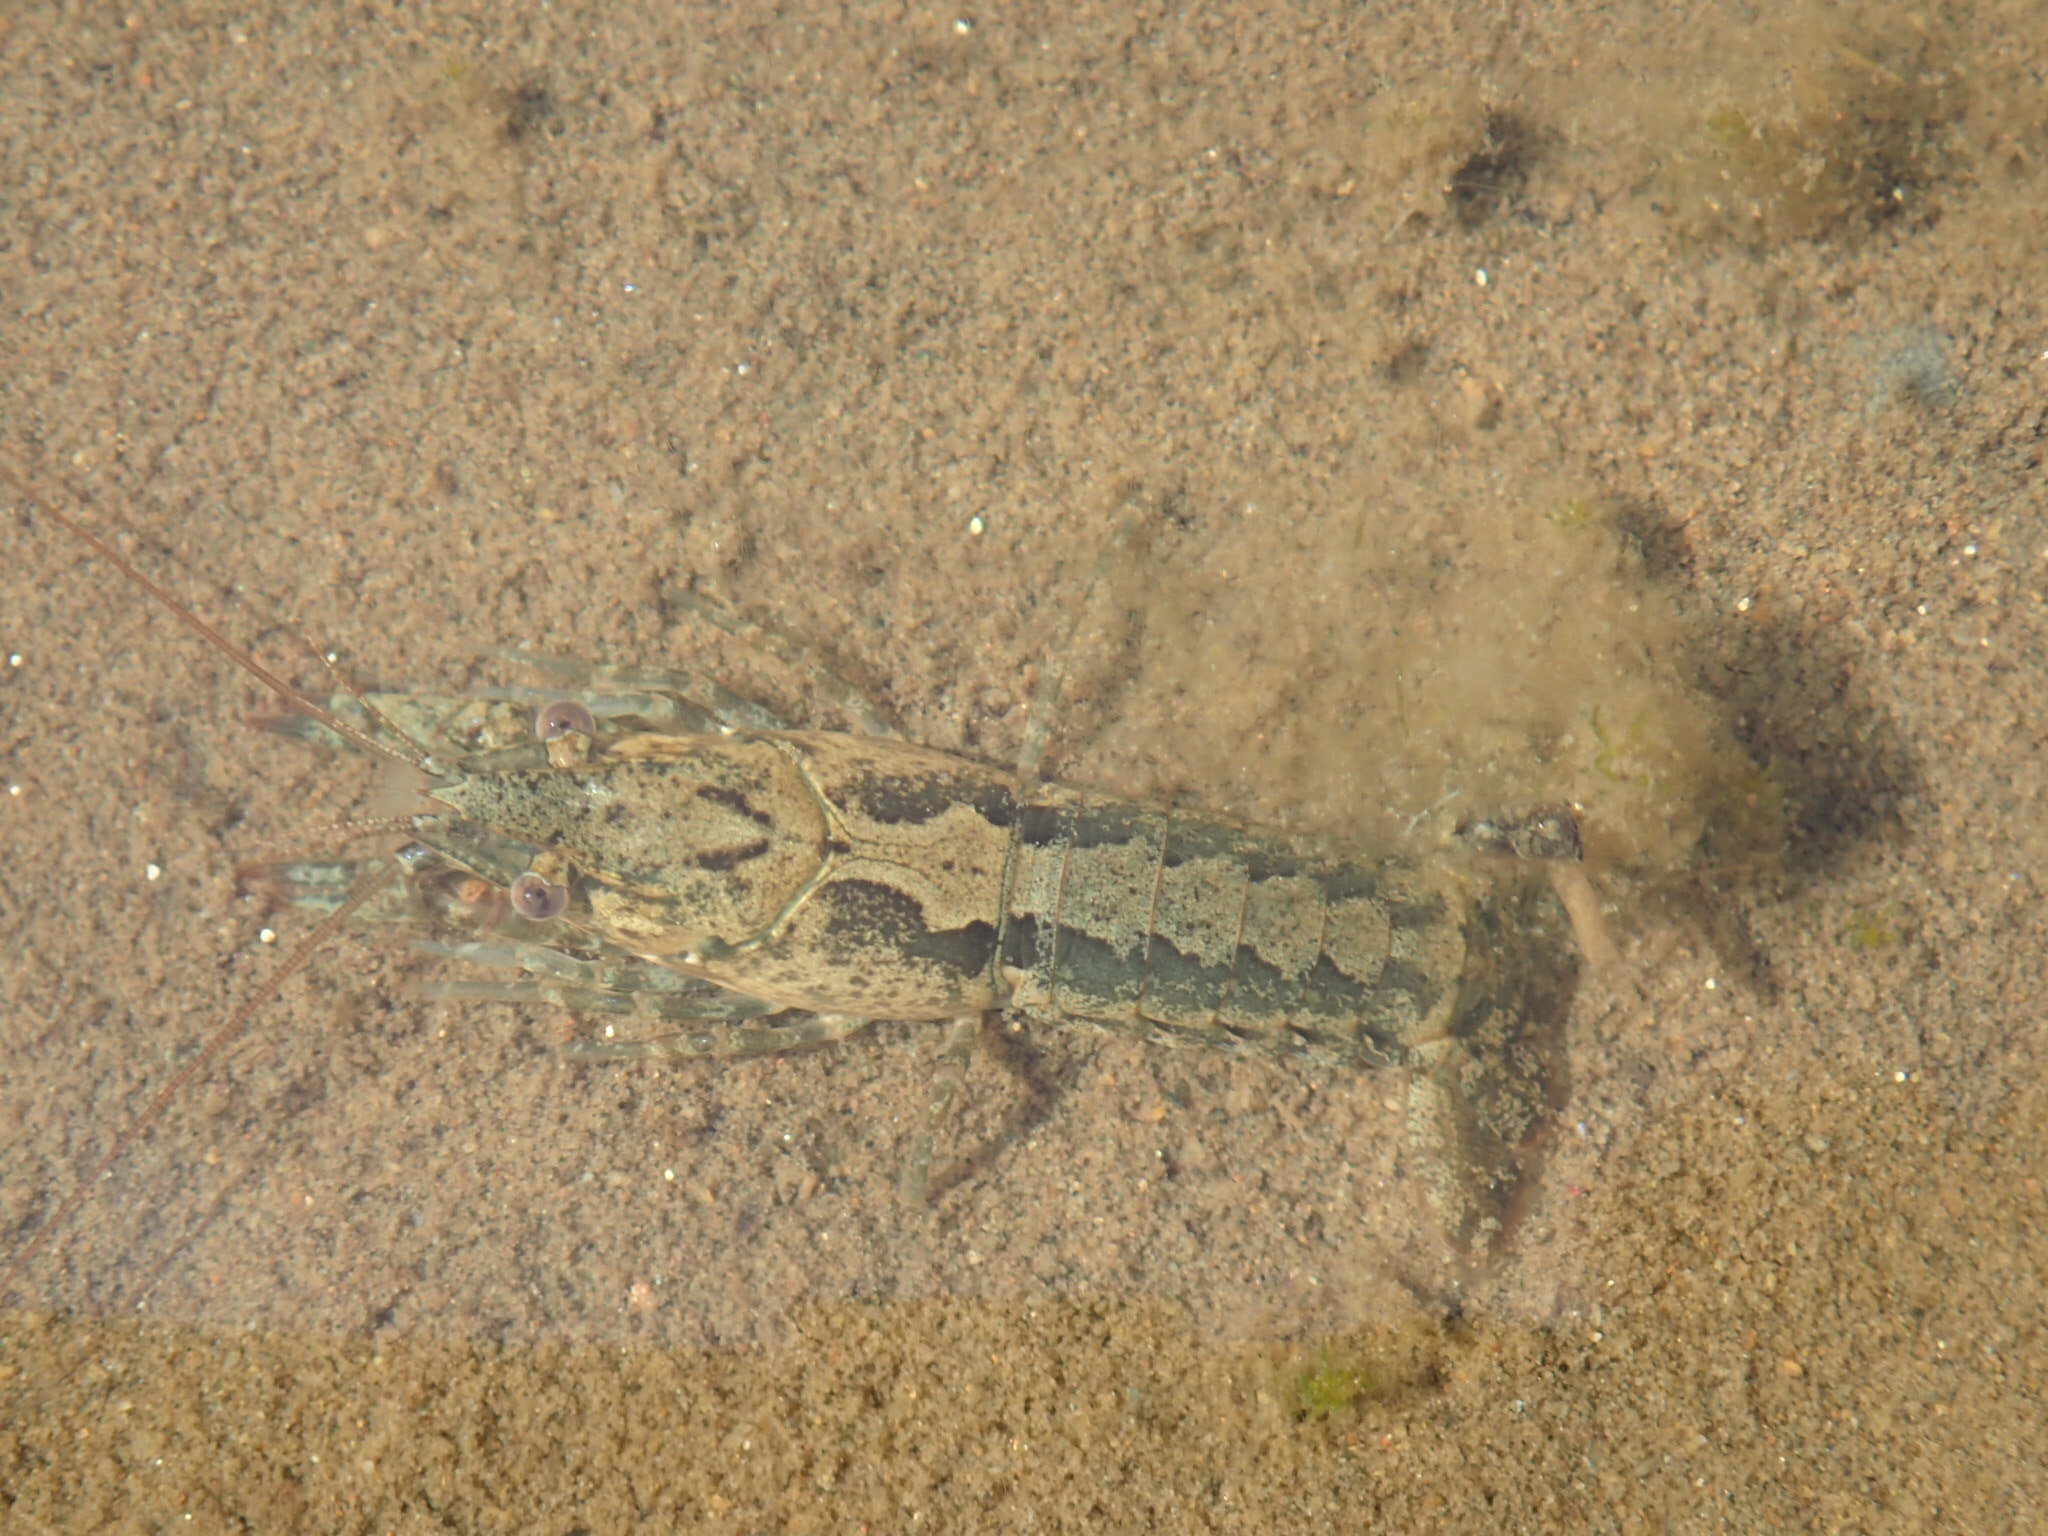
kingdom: Animalia
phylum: Arthropoda
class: Malacostraca
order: Decapoda
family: Cambaridae
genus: Faxonius
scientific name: Faxonius immunis
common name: Calico crayfish
